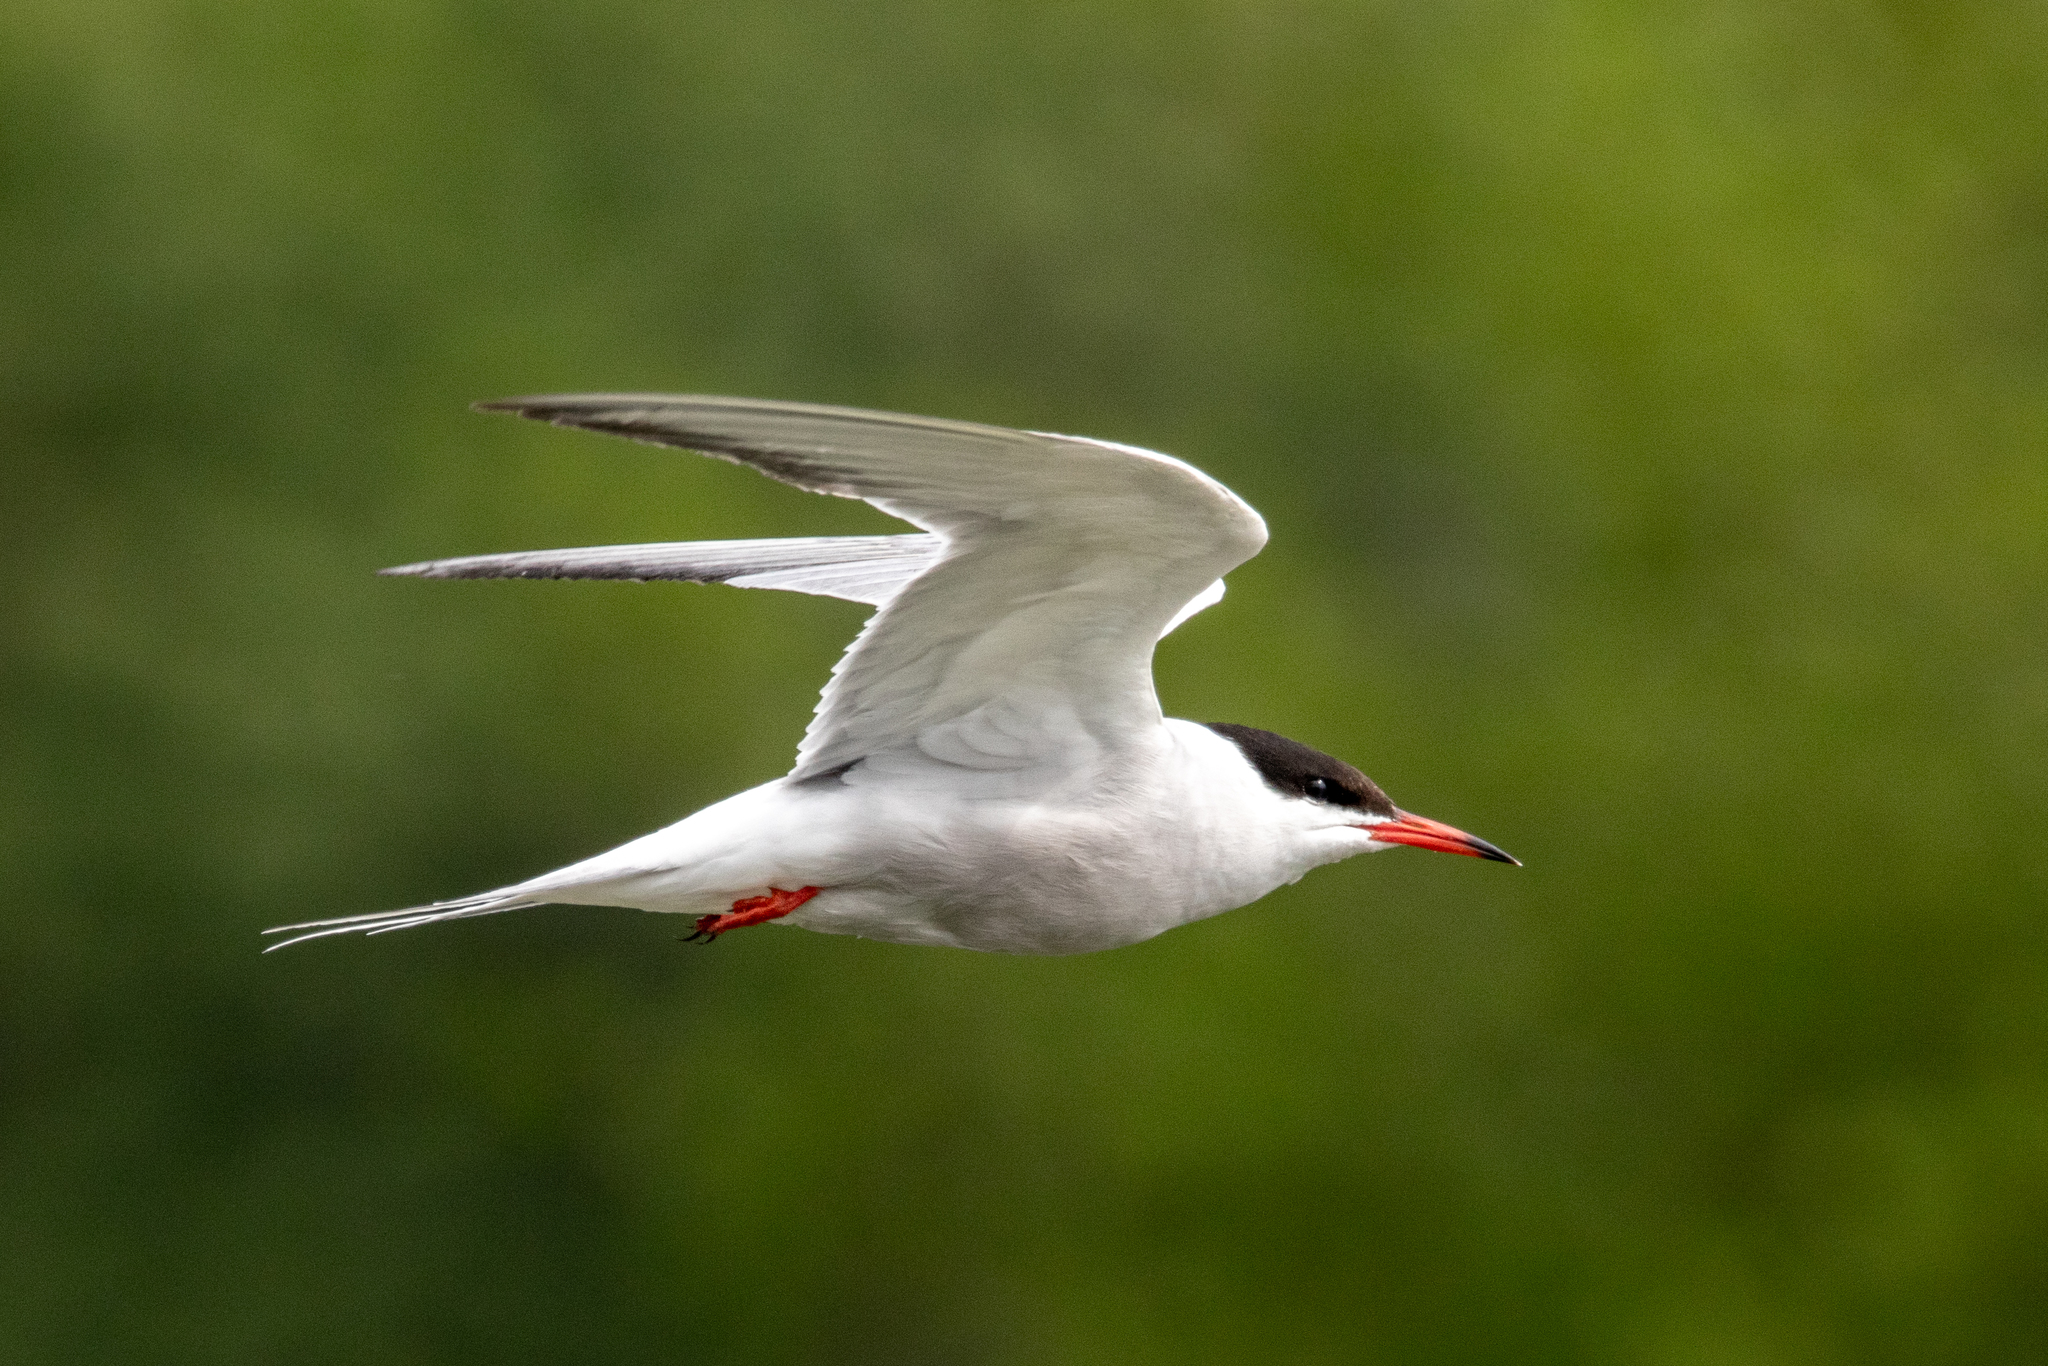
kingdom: Animalia
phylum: Chordata
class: Aves
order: Charadriiformes
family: Laridae
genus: Sterna
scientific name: Sterna hirundo
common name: Common tern
